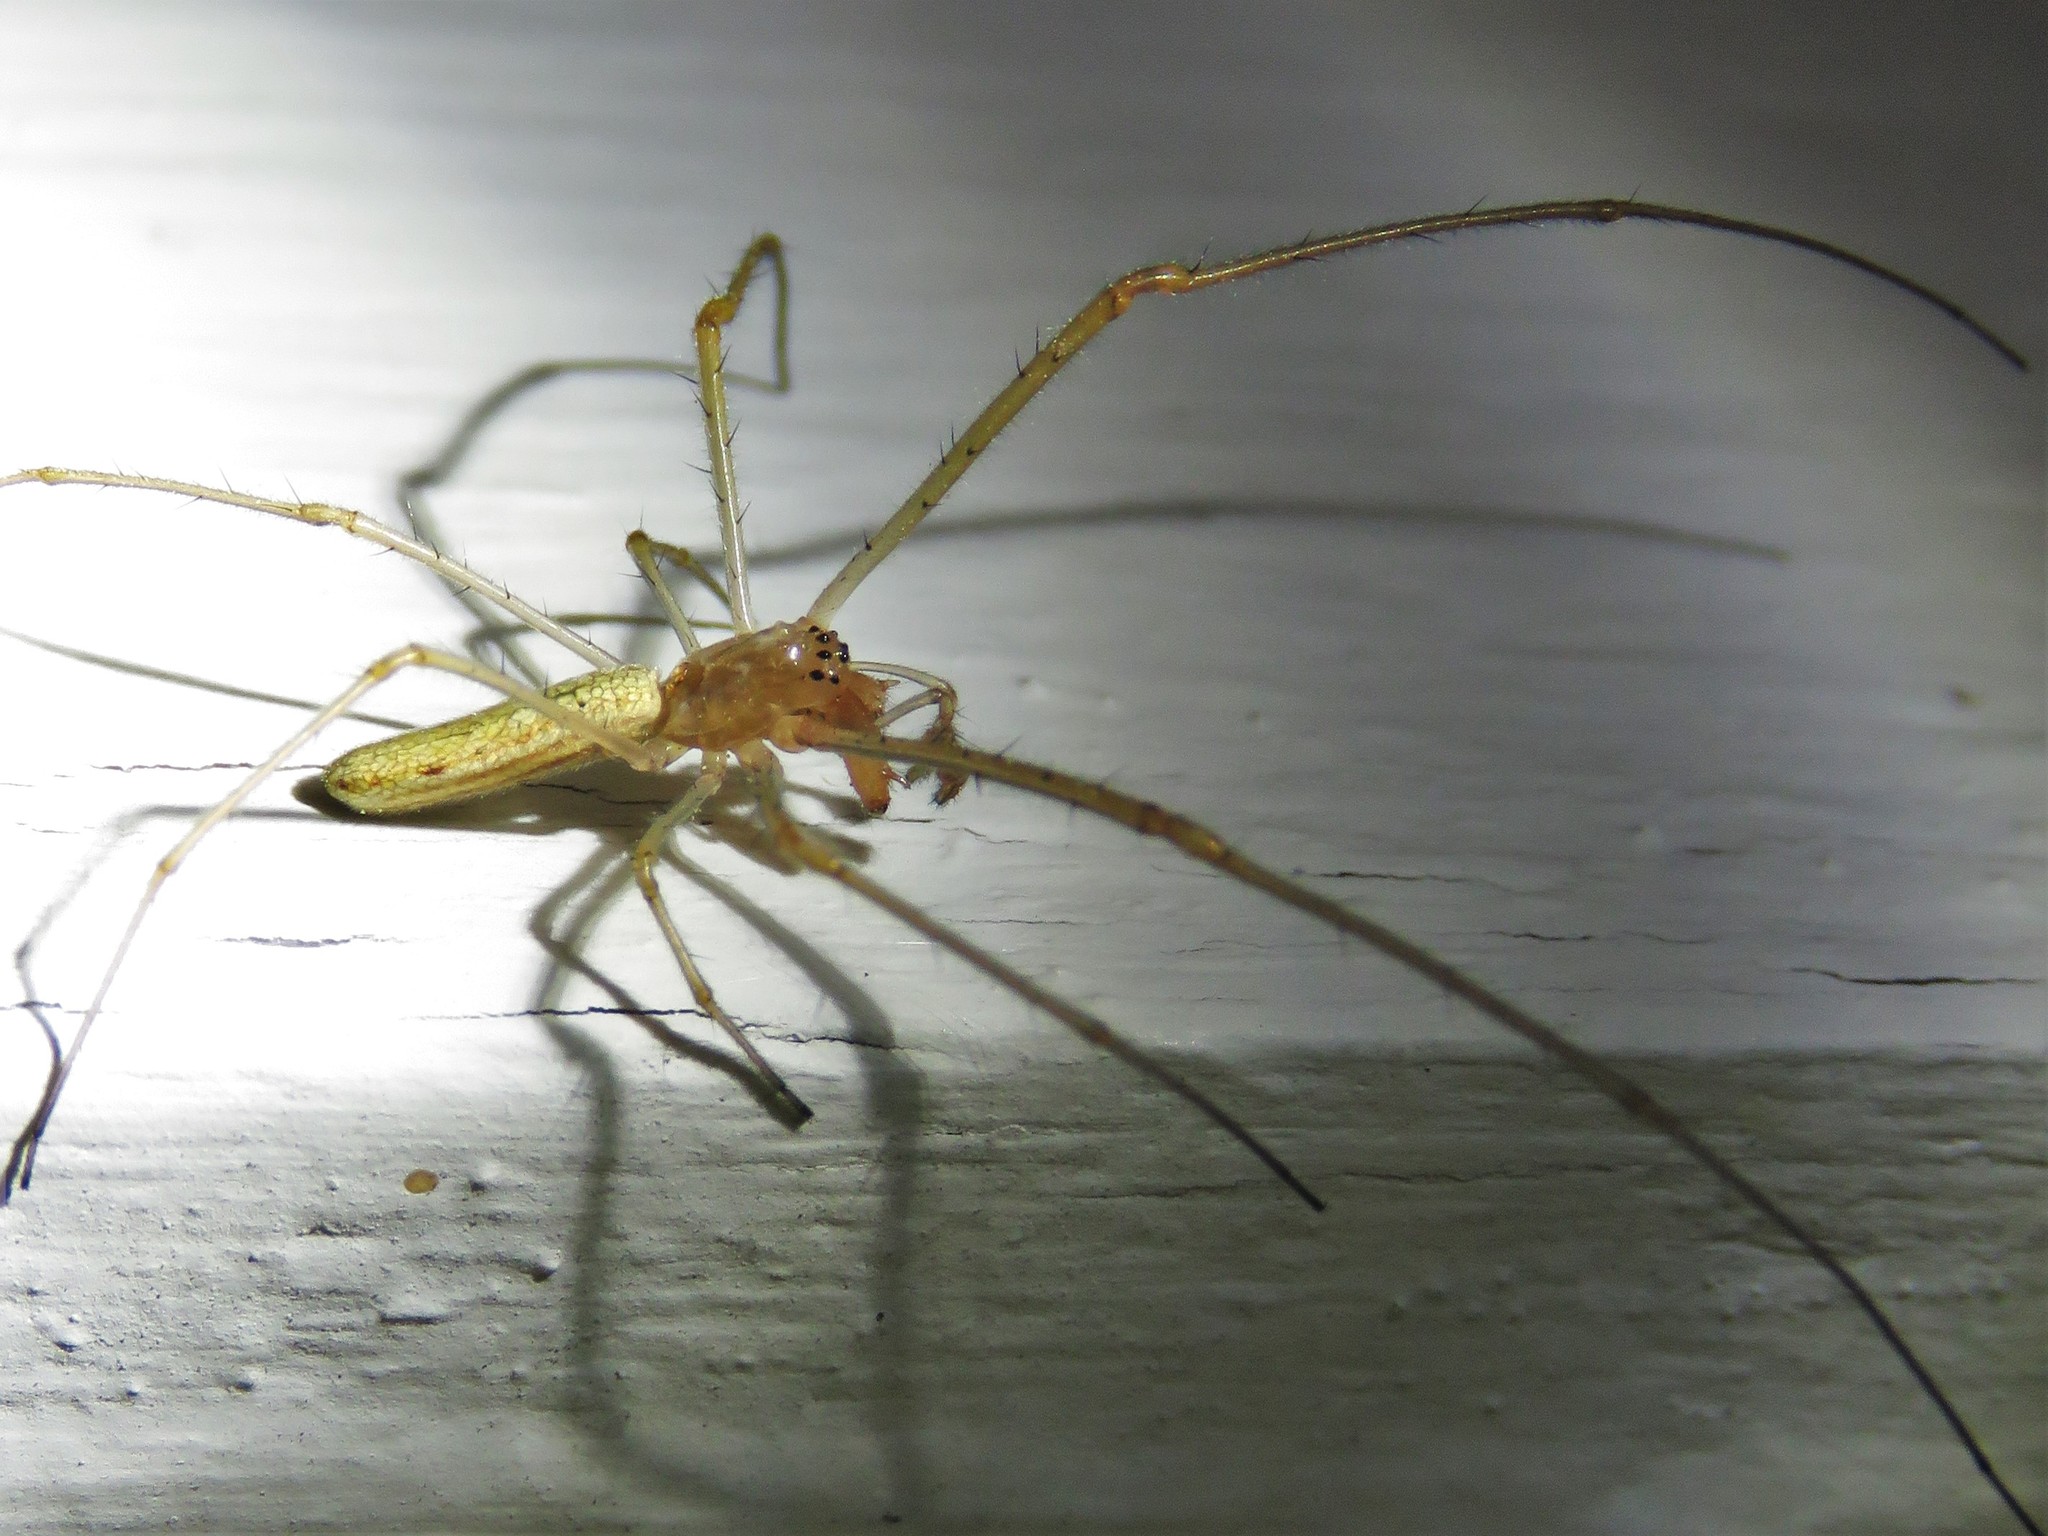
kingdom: Animalia
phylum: Arthropoda
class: Arachnida
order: Araneae
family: Tetragnathidae
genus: Tetragnatha
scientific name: Tetragnatha laboriosa
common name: Longjawed orb weavers
